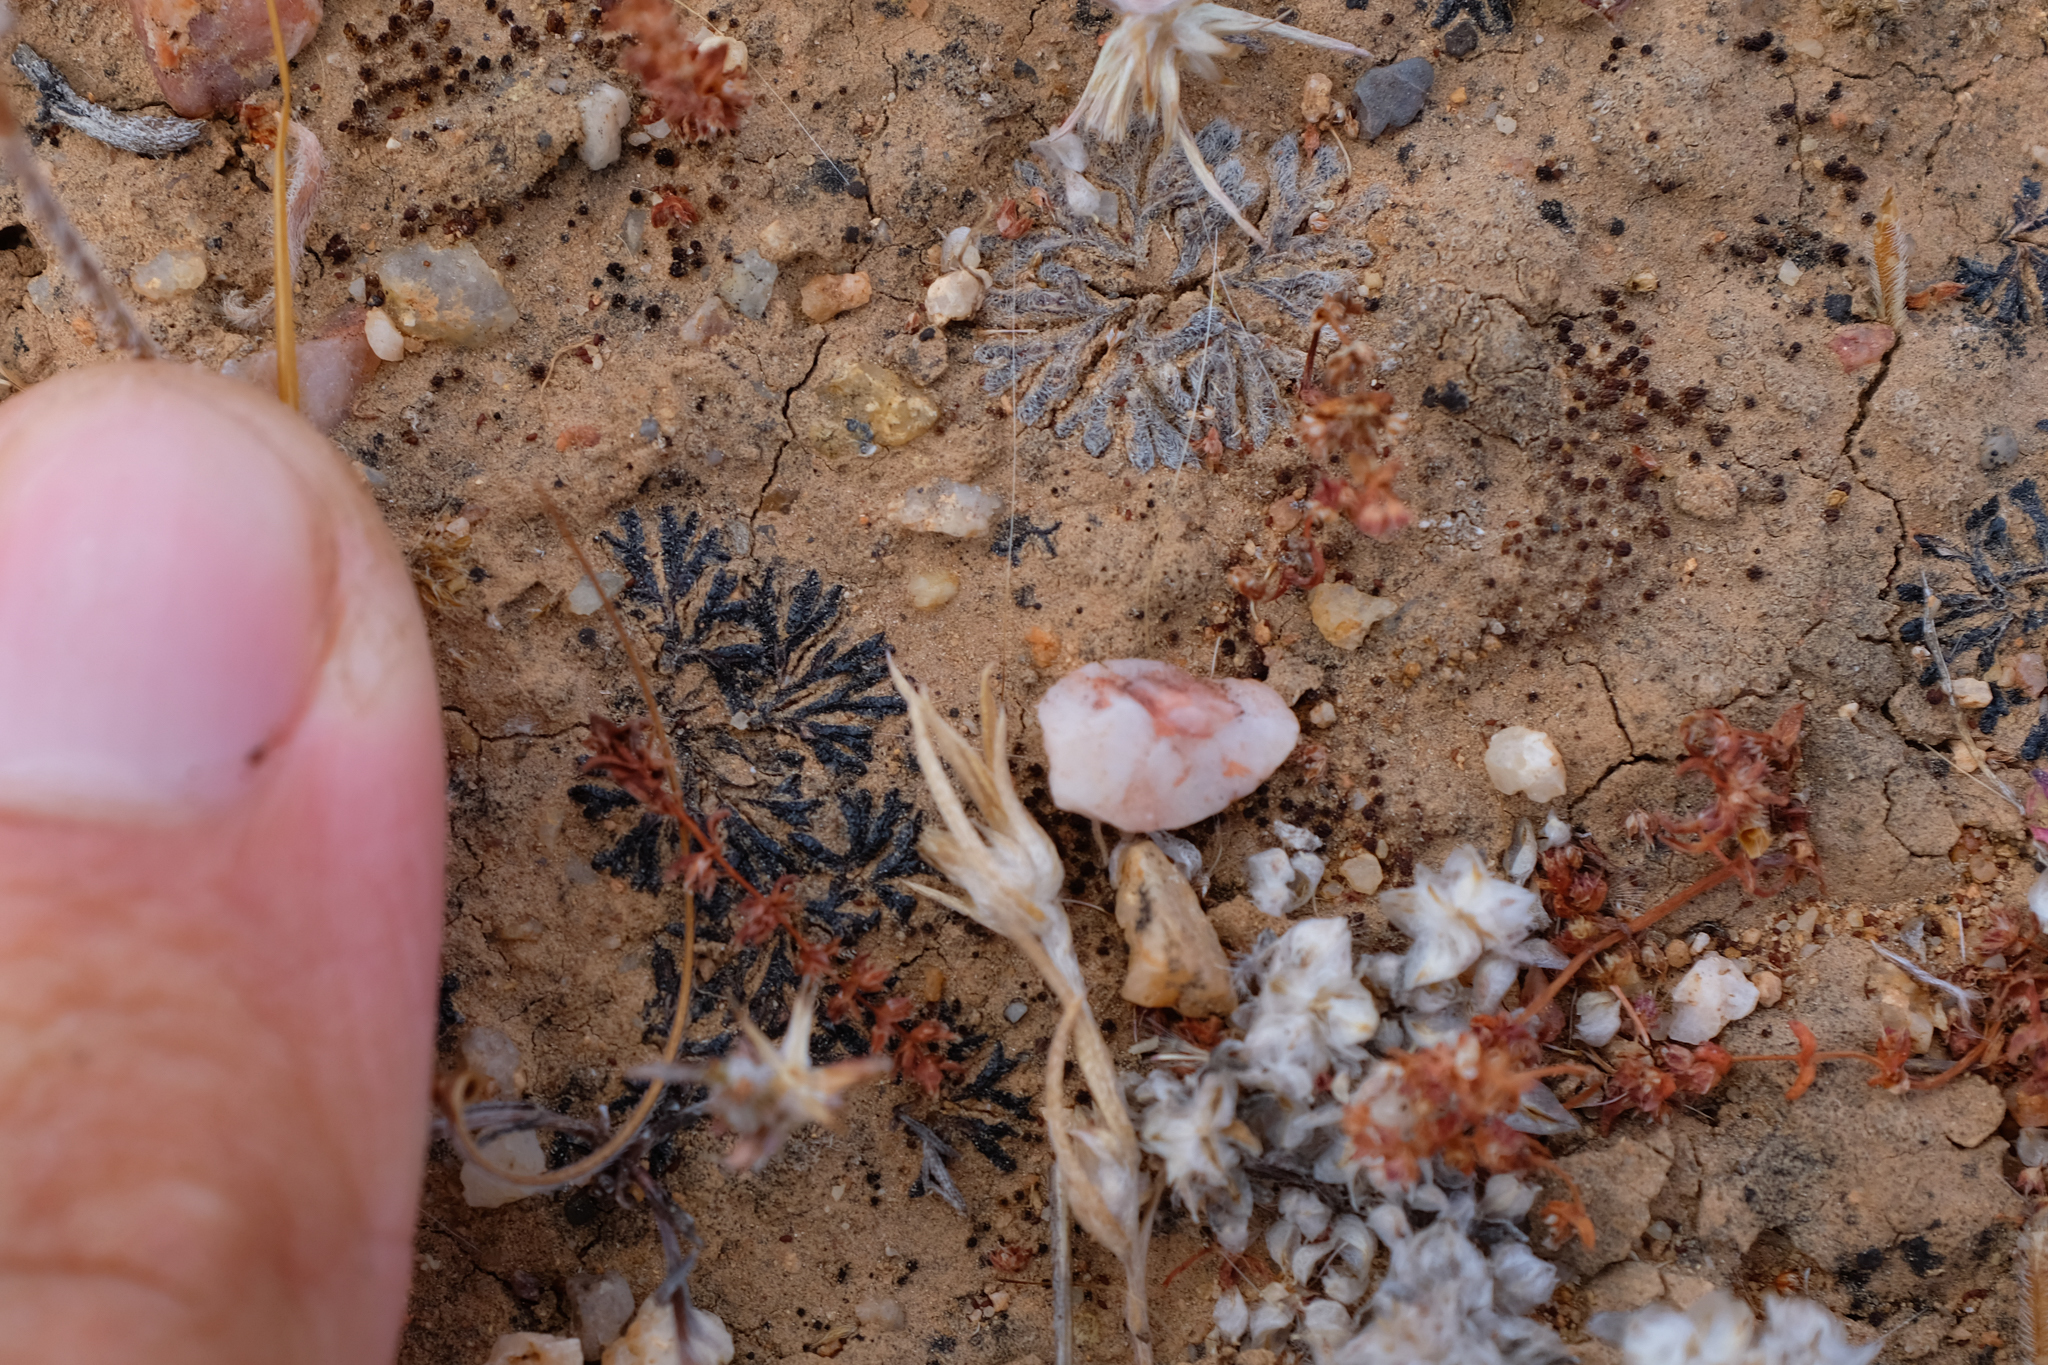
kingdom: Plantae
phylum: Marchantiophyta
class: Marchantiopsida
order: Marchantiales
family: Ricciaceae
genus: Riccia
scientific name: Riccia trichocarpa
